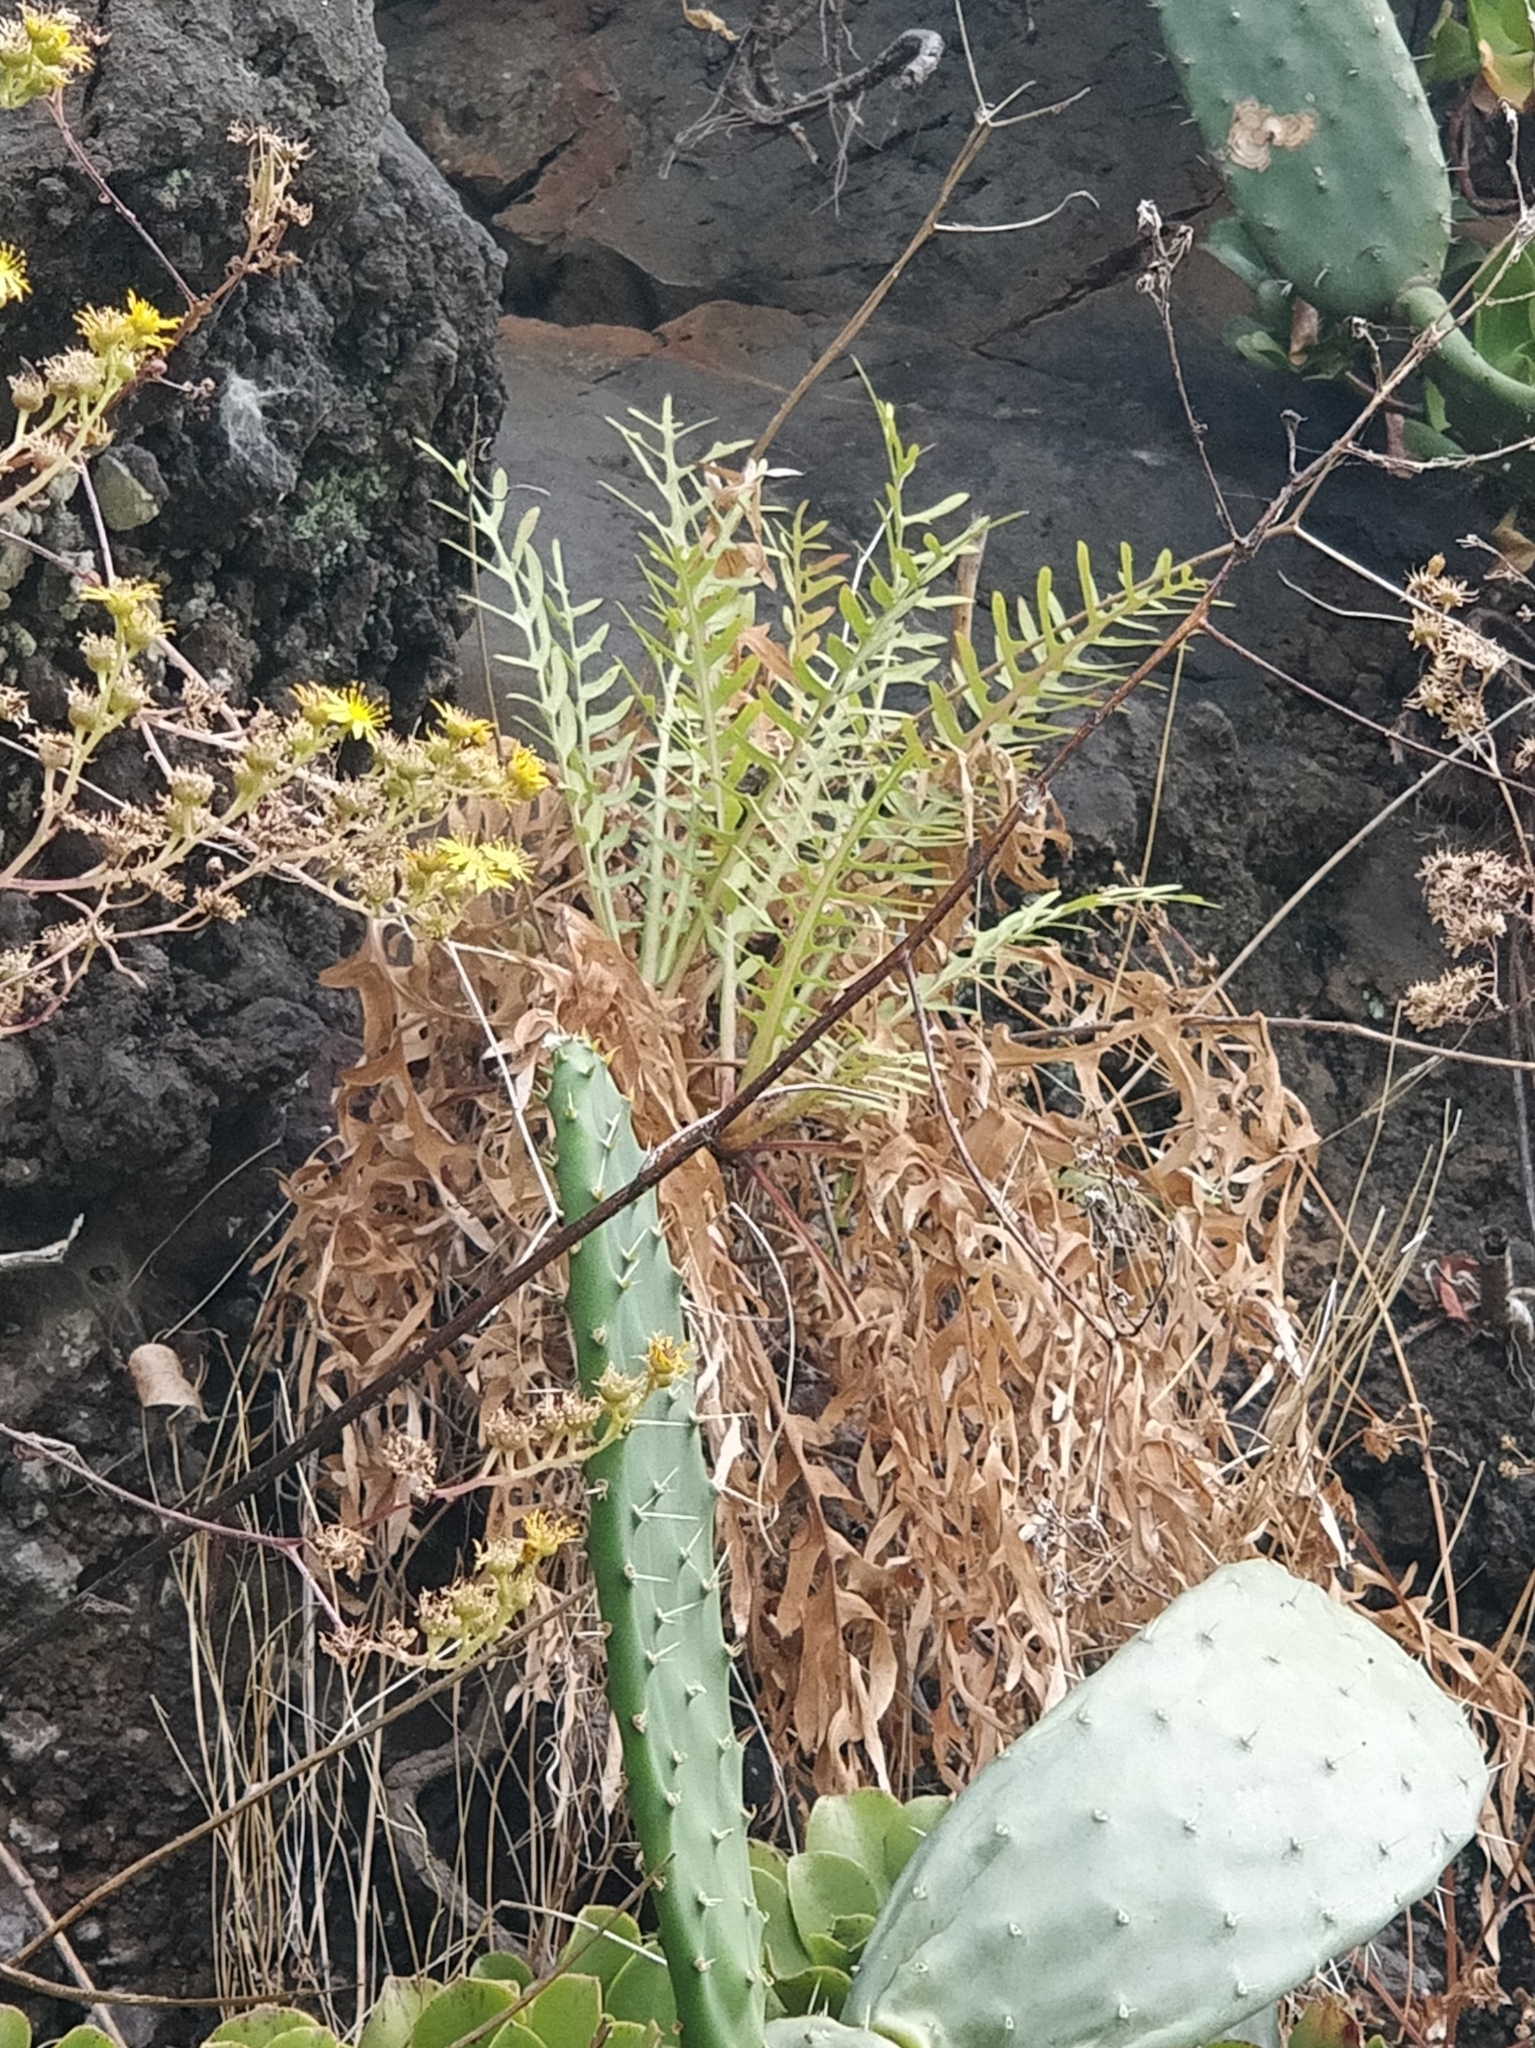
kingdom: Plantae
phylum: Tracheophyta
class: Magnoliopsida
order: Asterales
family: Asteraceae
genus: Sonchus
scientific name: Sonchus ustulatus
